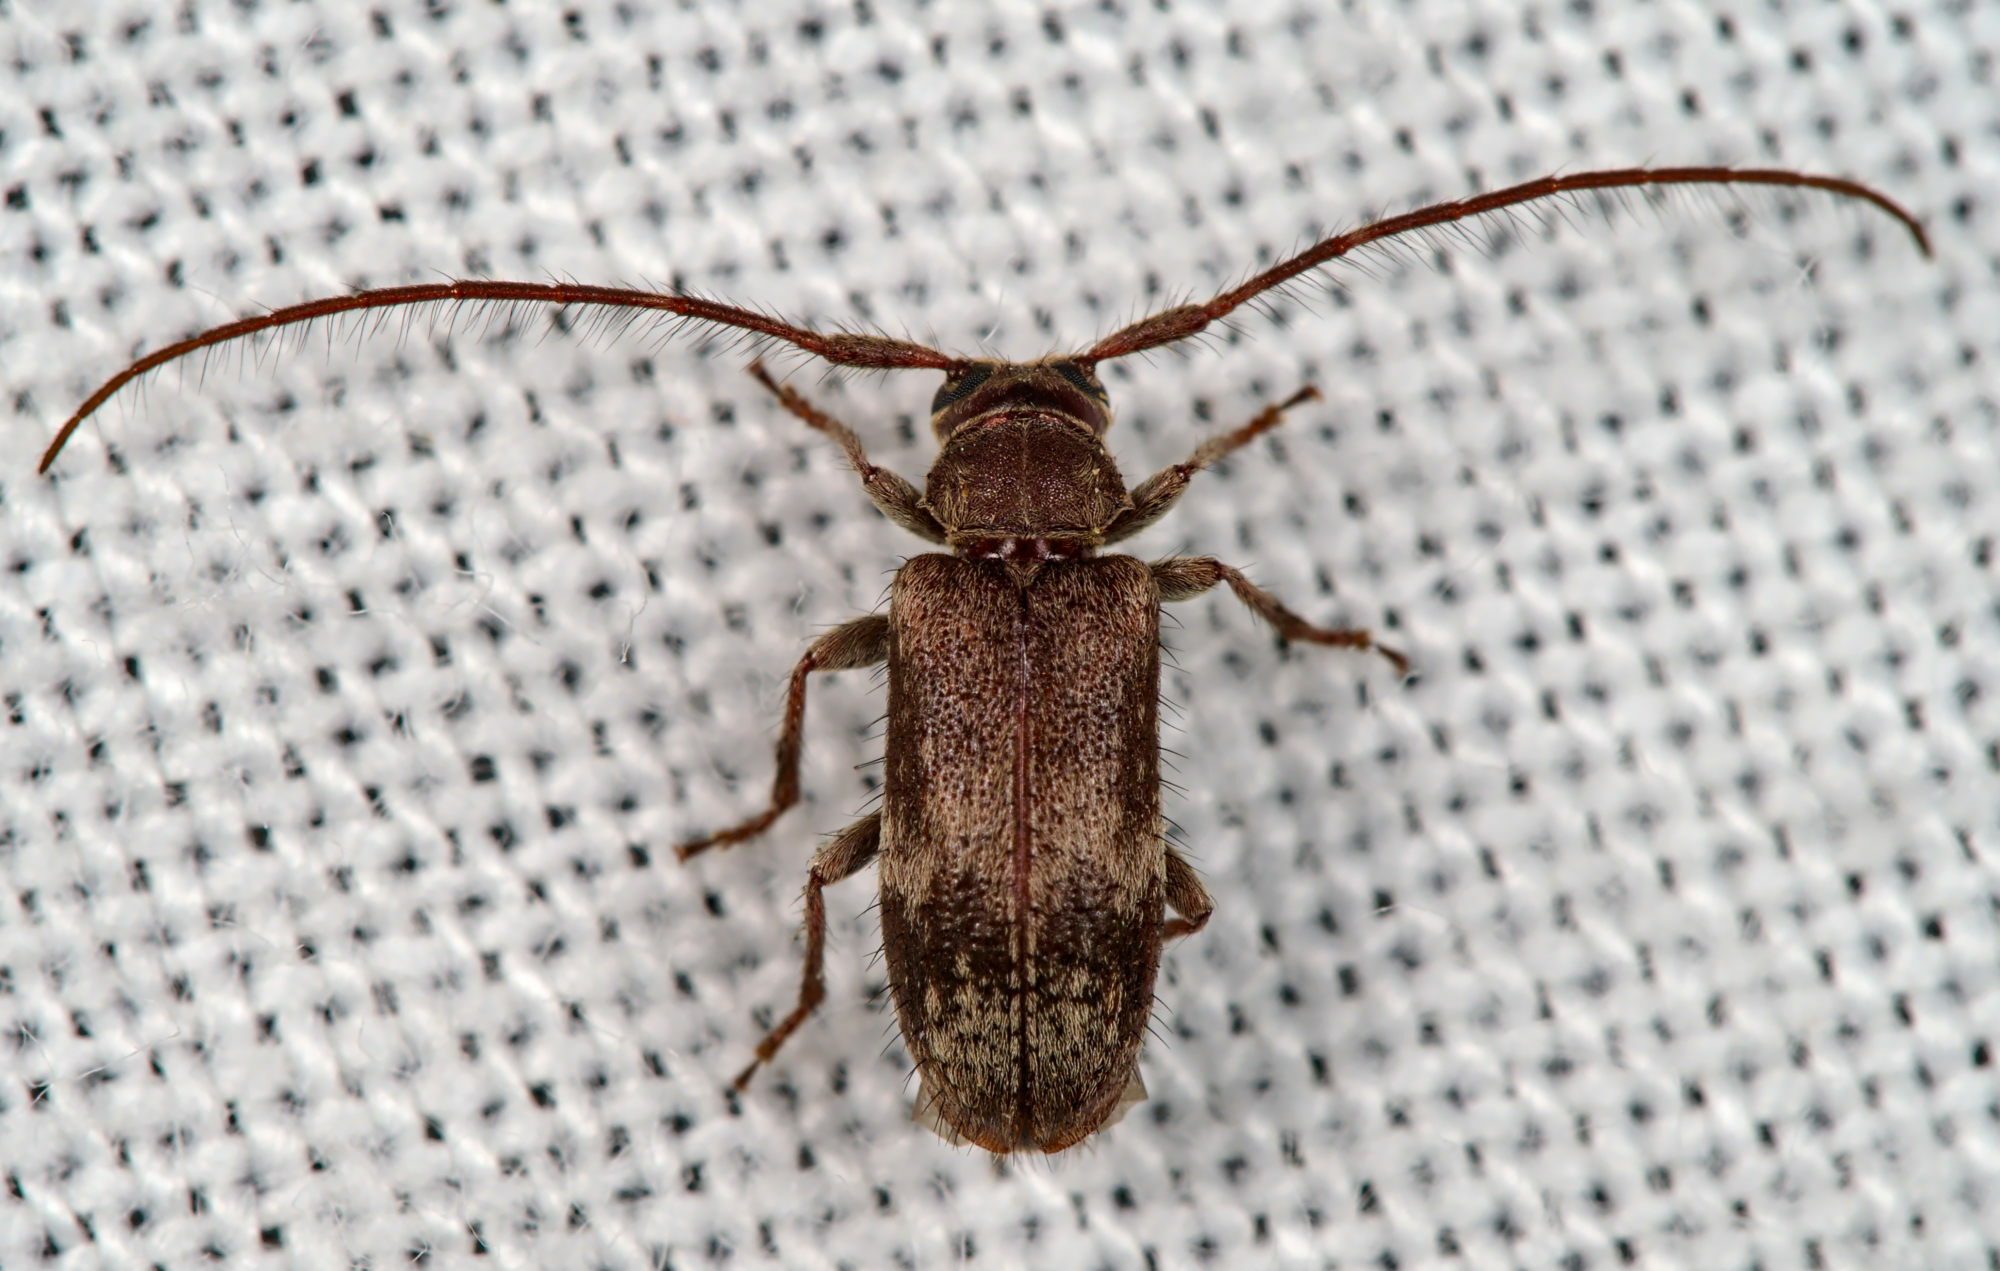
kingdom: Animalia
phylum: Arthropoda
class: Insecta
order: Coleoptera
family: Cerambycidae
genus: Exocentrus
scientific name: Exocentrus adspersus
